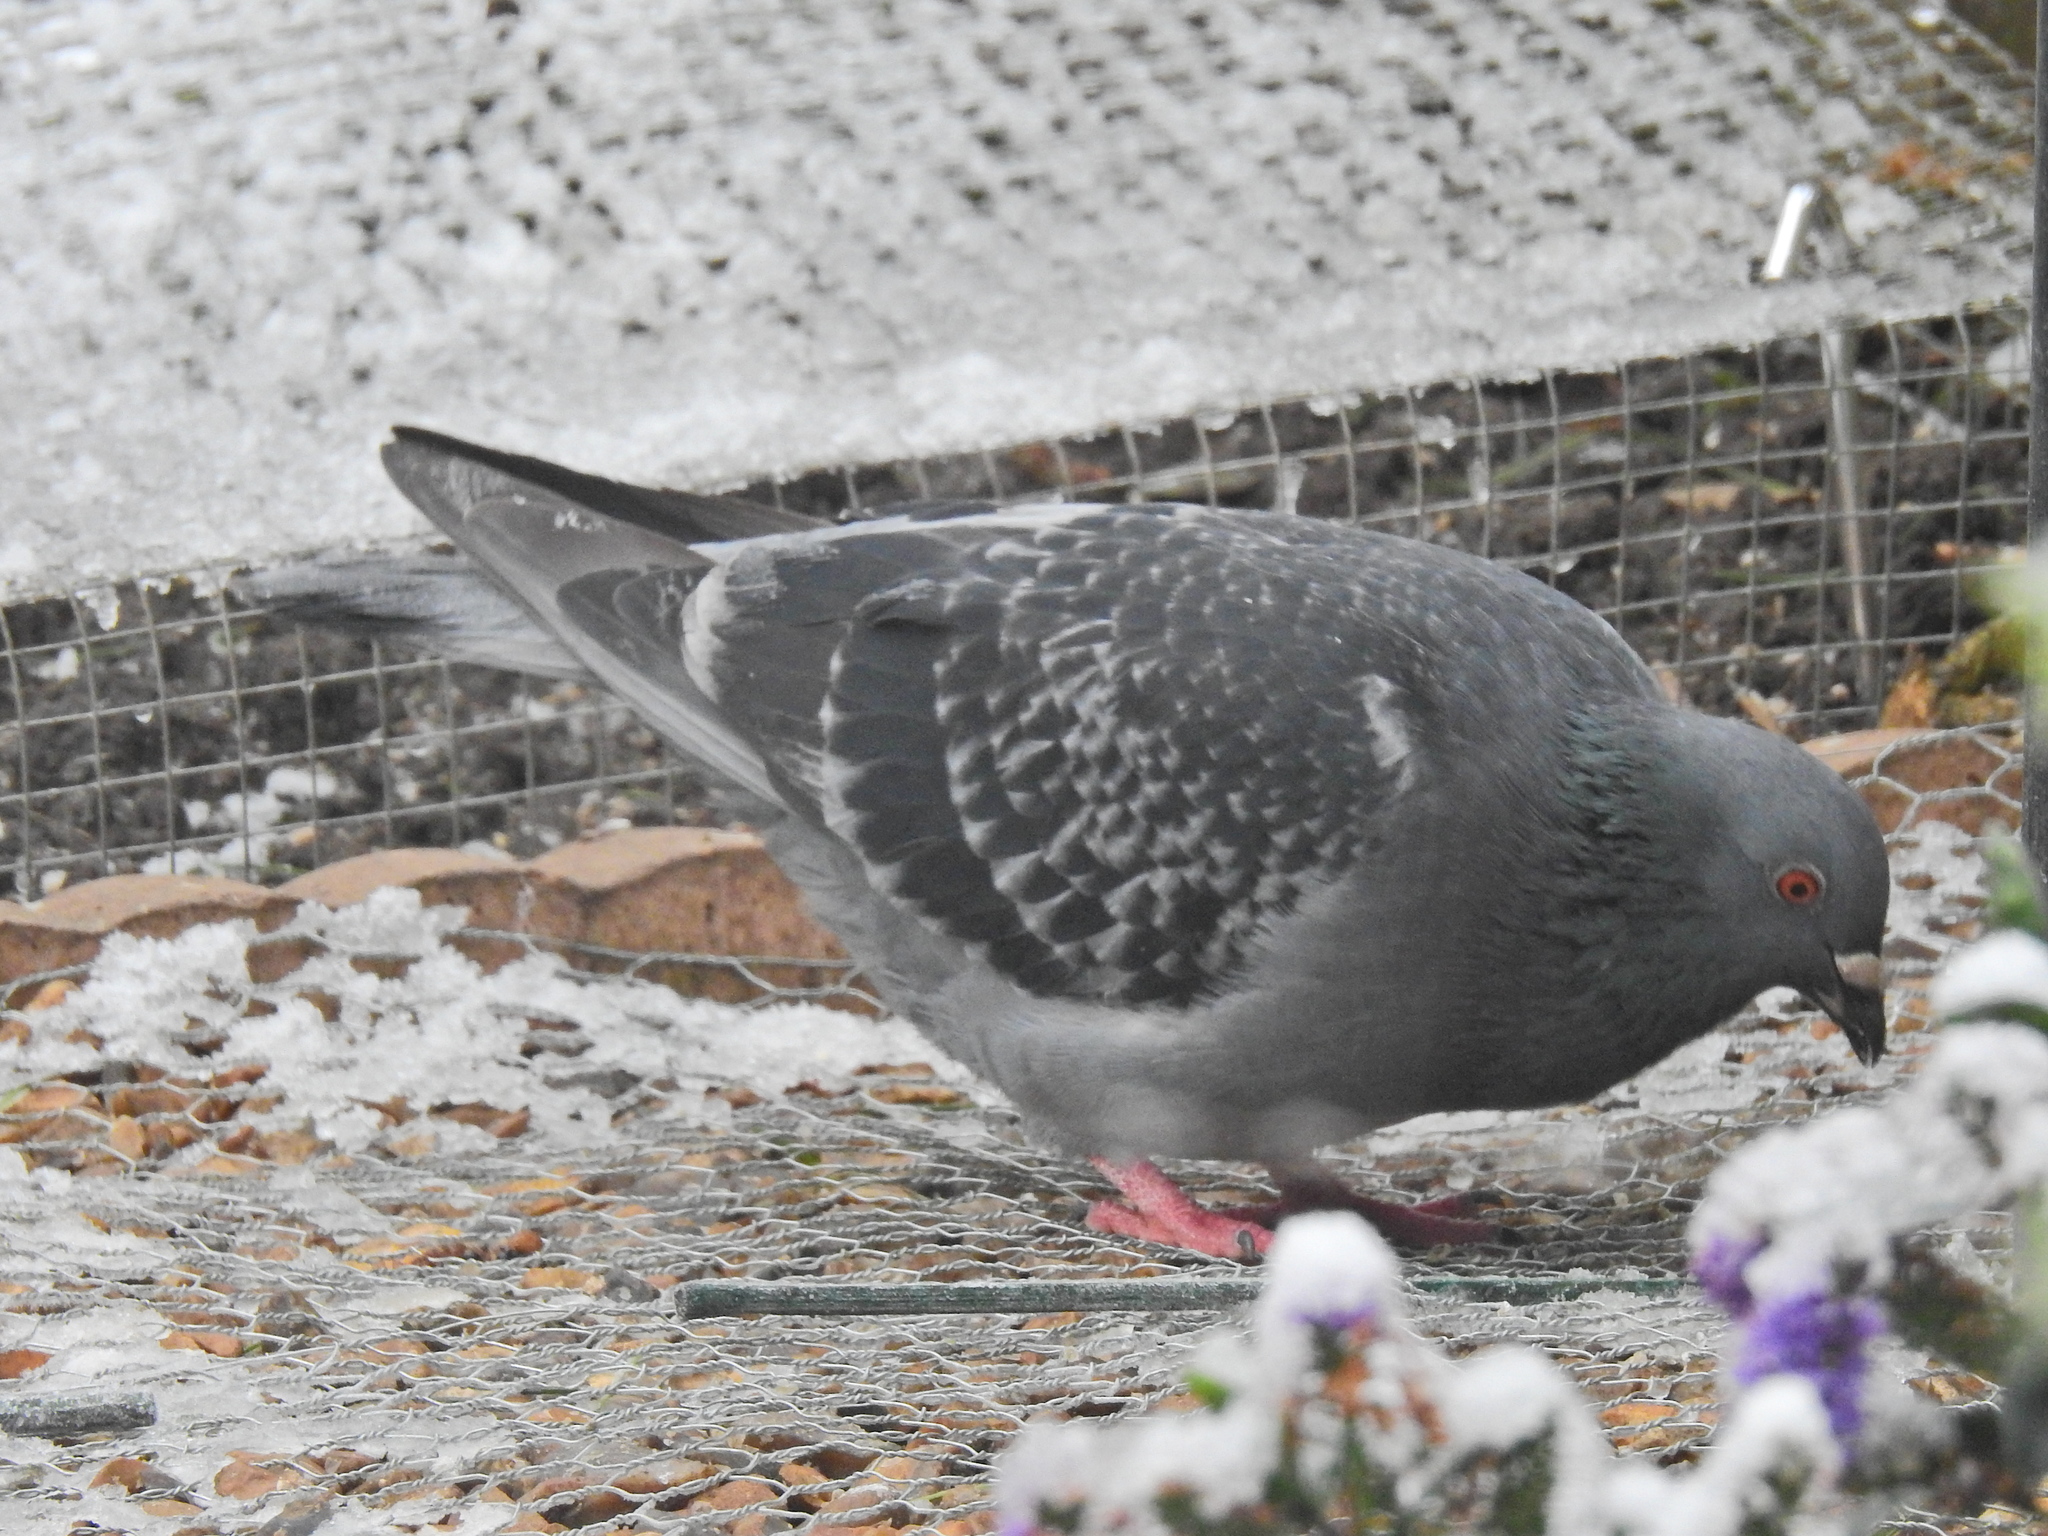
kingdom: Animalia
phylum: Chordata
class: Aves
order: Columbiformes
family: Columbidae
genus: Columba
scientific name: Columba livia
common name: Rock pigeon
